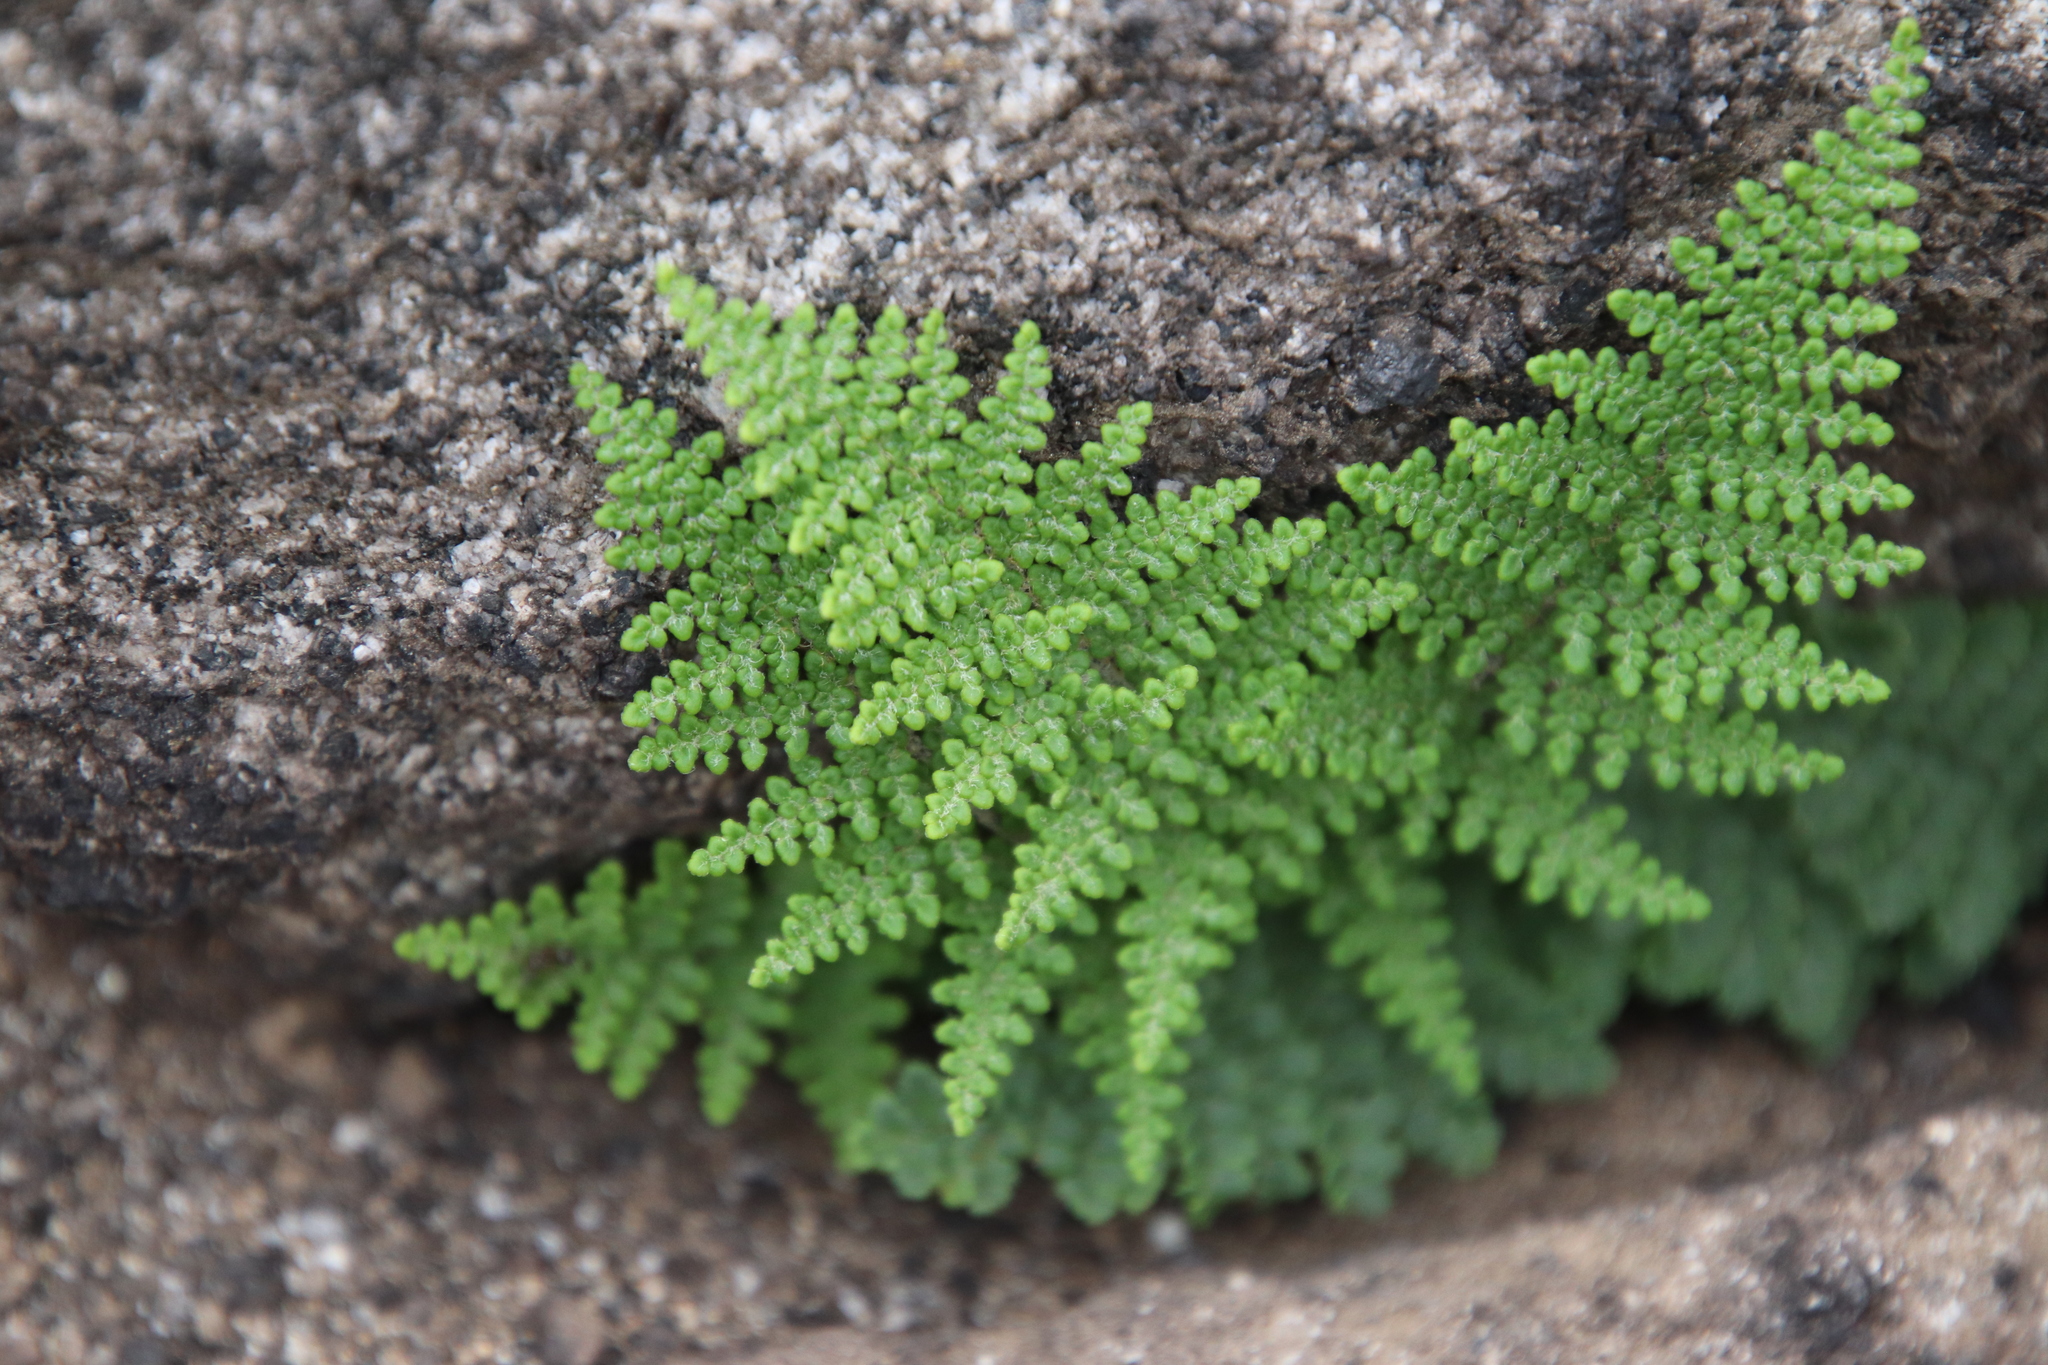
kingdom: Plantae
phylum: Tracheophyta
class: Polypodiopsida
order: Polypodiales
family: Pteridaceae
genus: Myriopteris
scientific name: Myriopteris clevelandii
